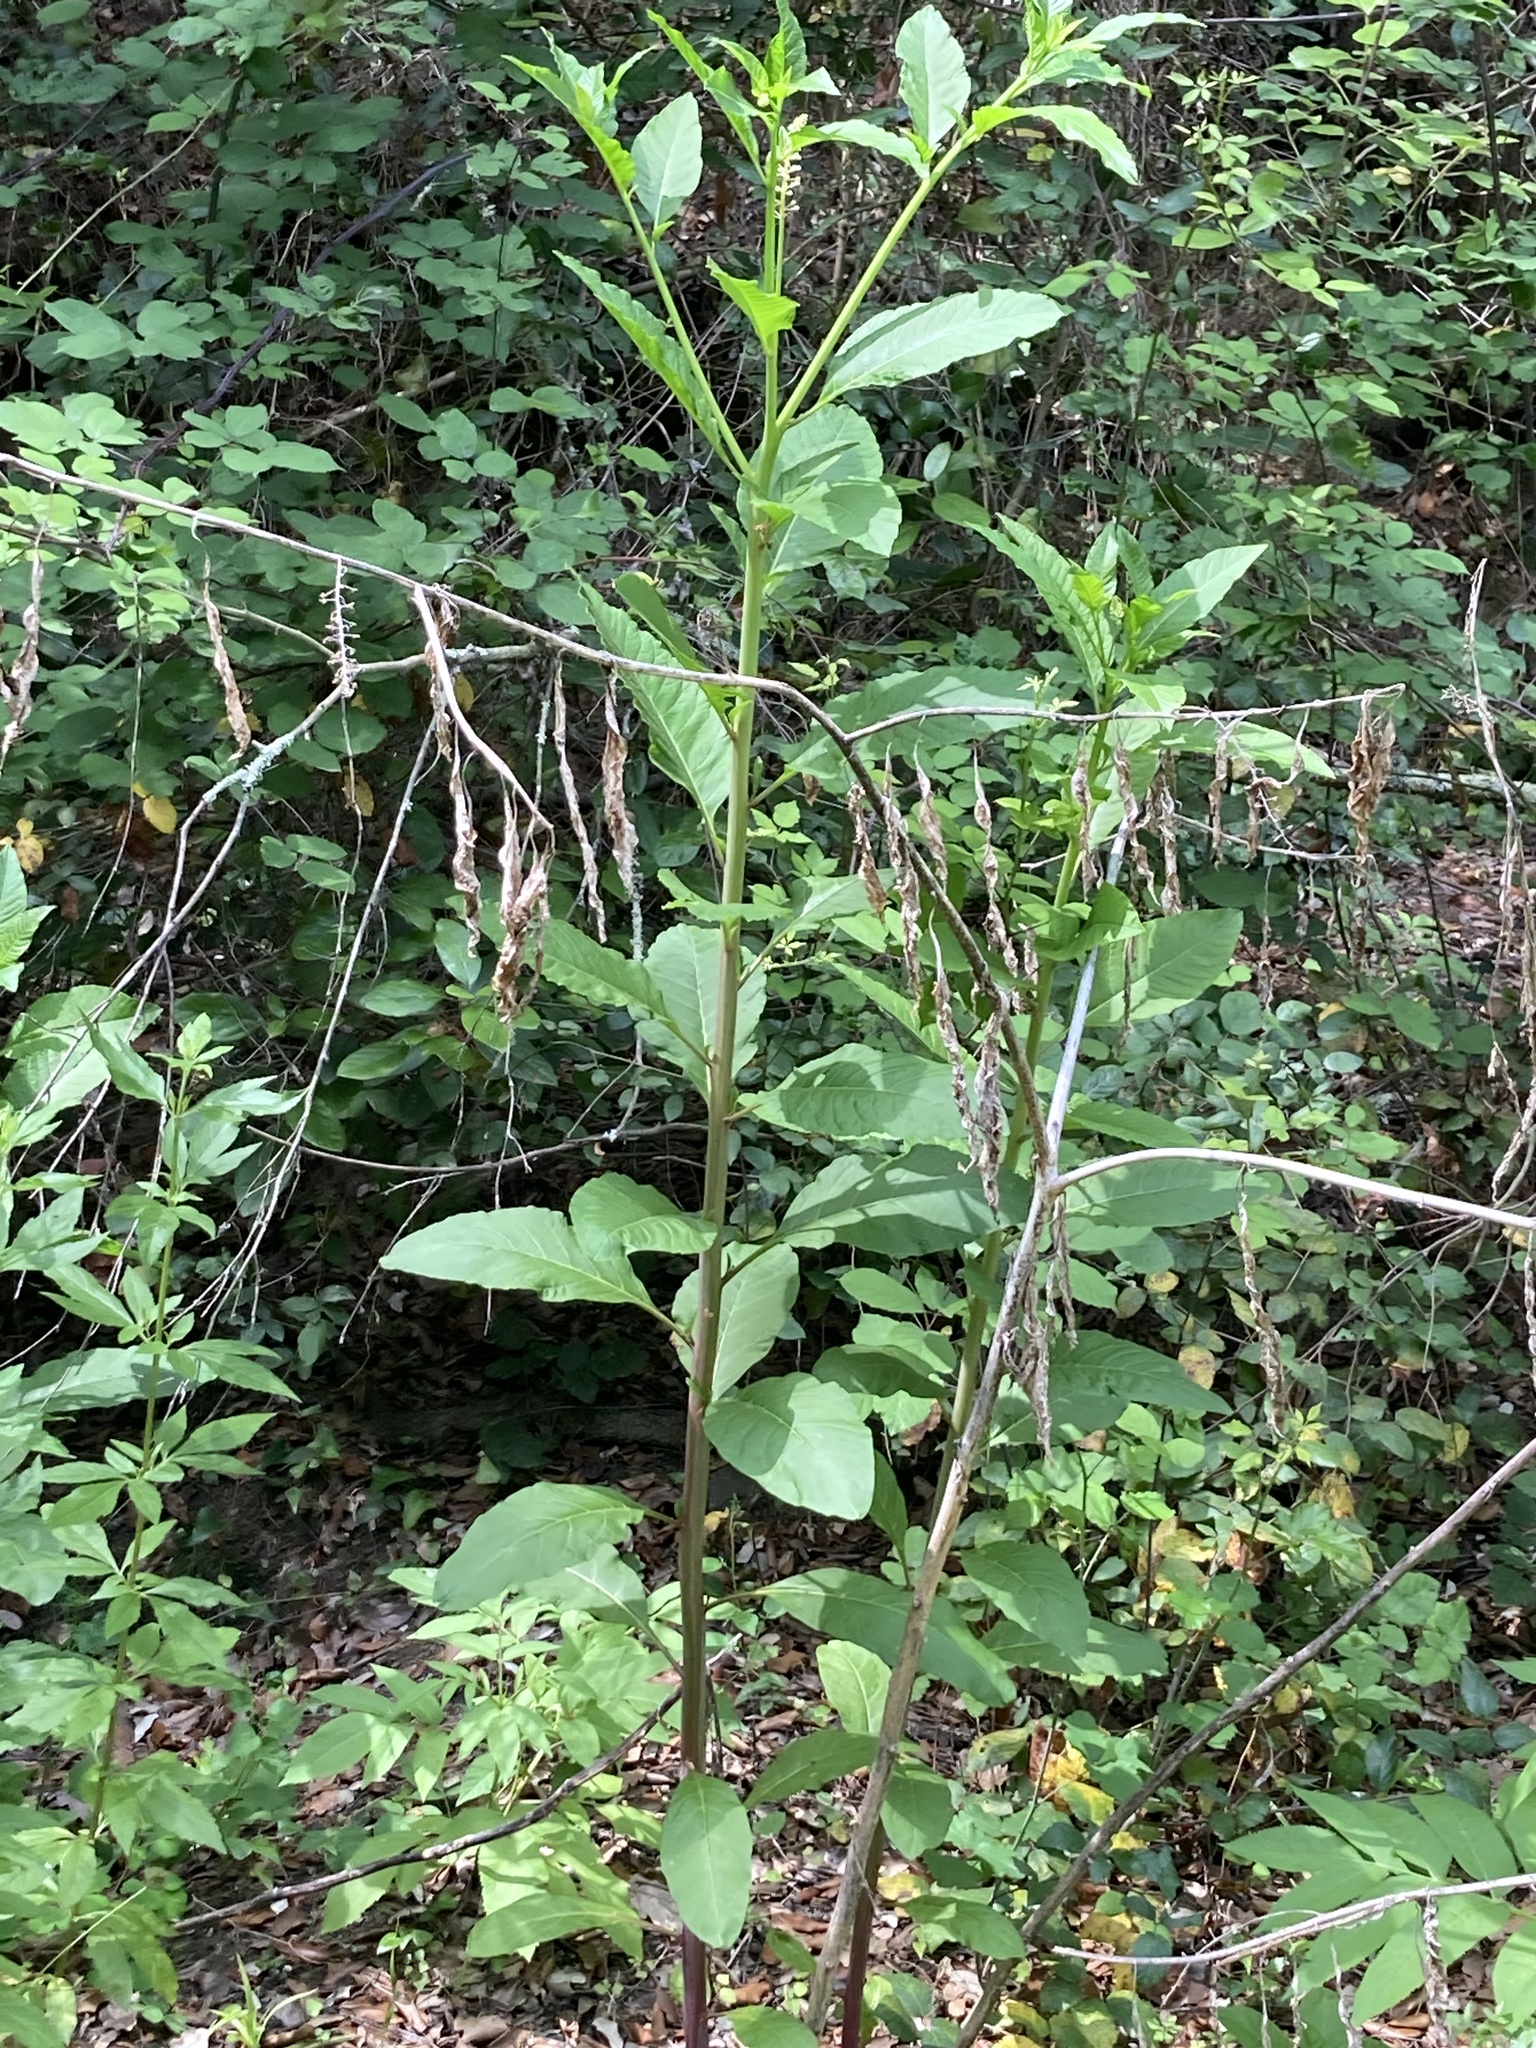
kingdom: Plantae
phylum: Tracheophyta
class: Magnoliopsida
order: Caryophyllales
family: Phytolaccaceae
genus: Phytolacca
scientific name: Phytolacca americana
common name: American pokeweed
